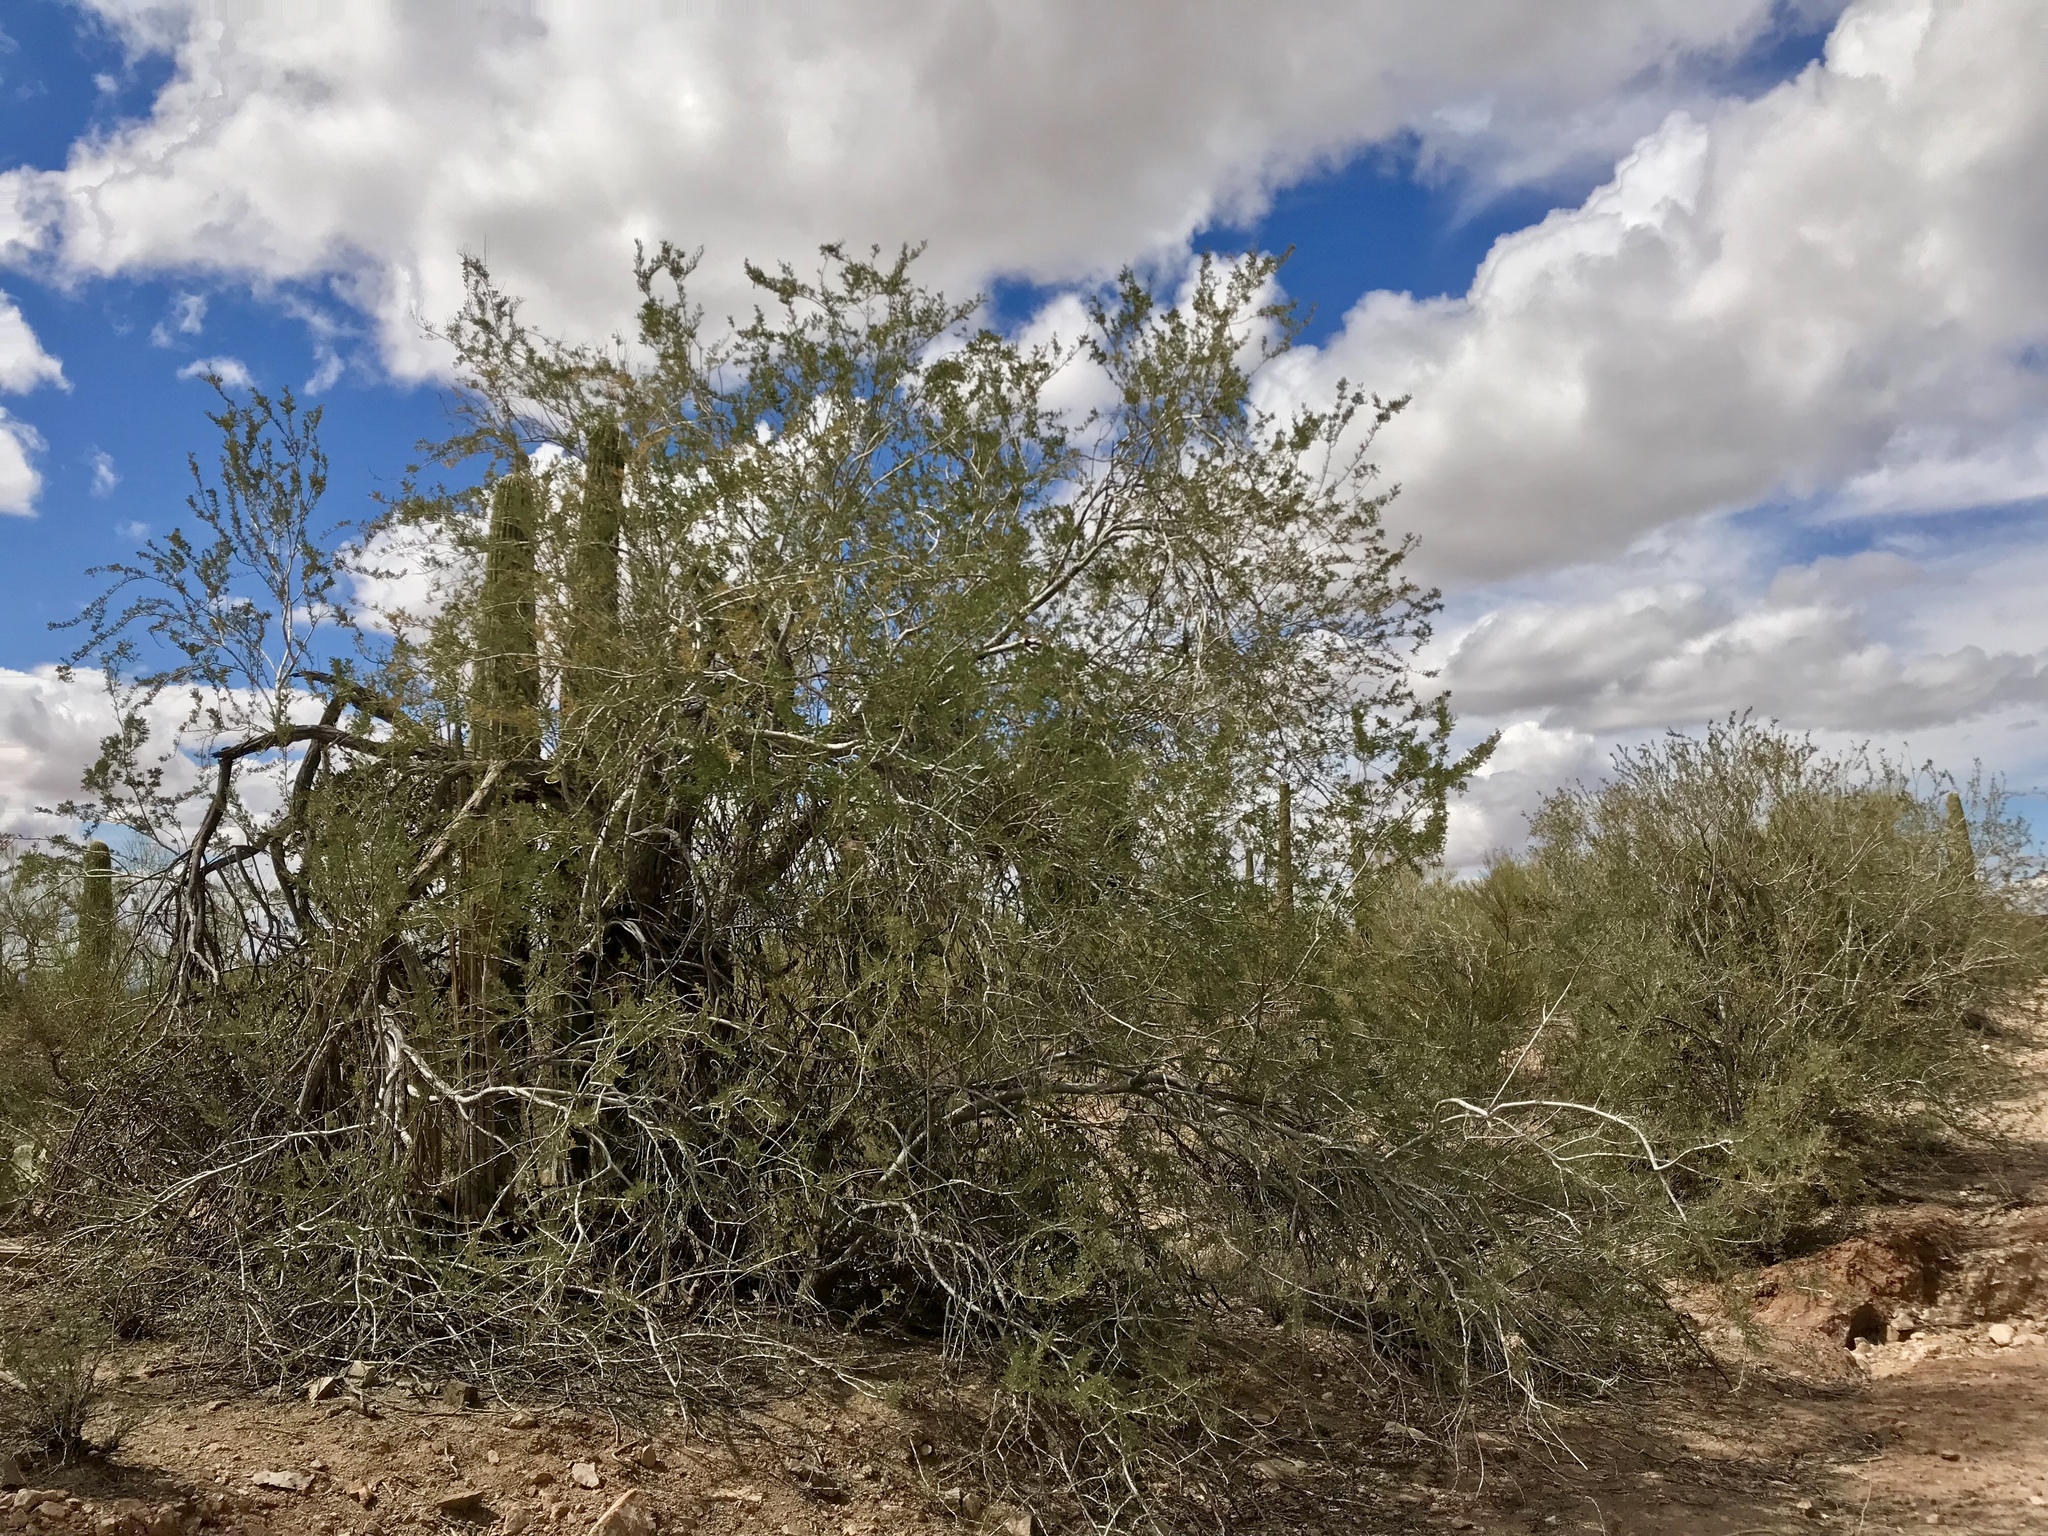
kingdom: Plantae
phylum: Tracheophyta
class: Magnoliopsida
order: Fabales
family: Fabaceae
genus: Olneya
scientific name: Olneya tesota
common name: Desert ironwood
